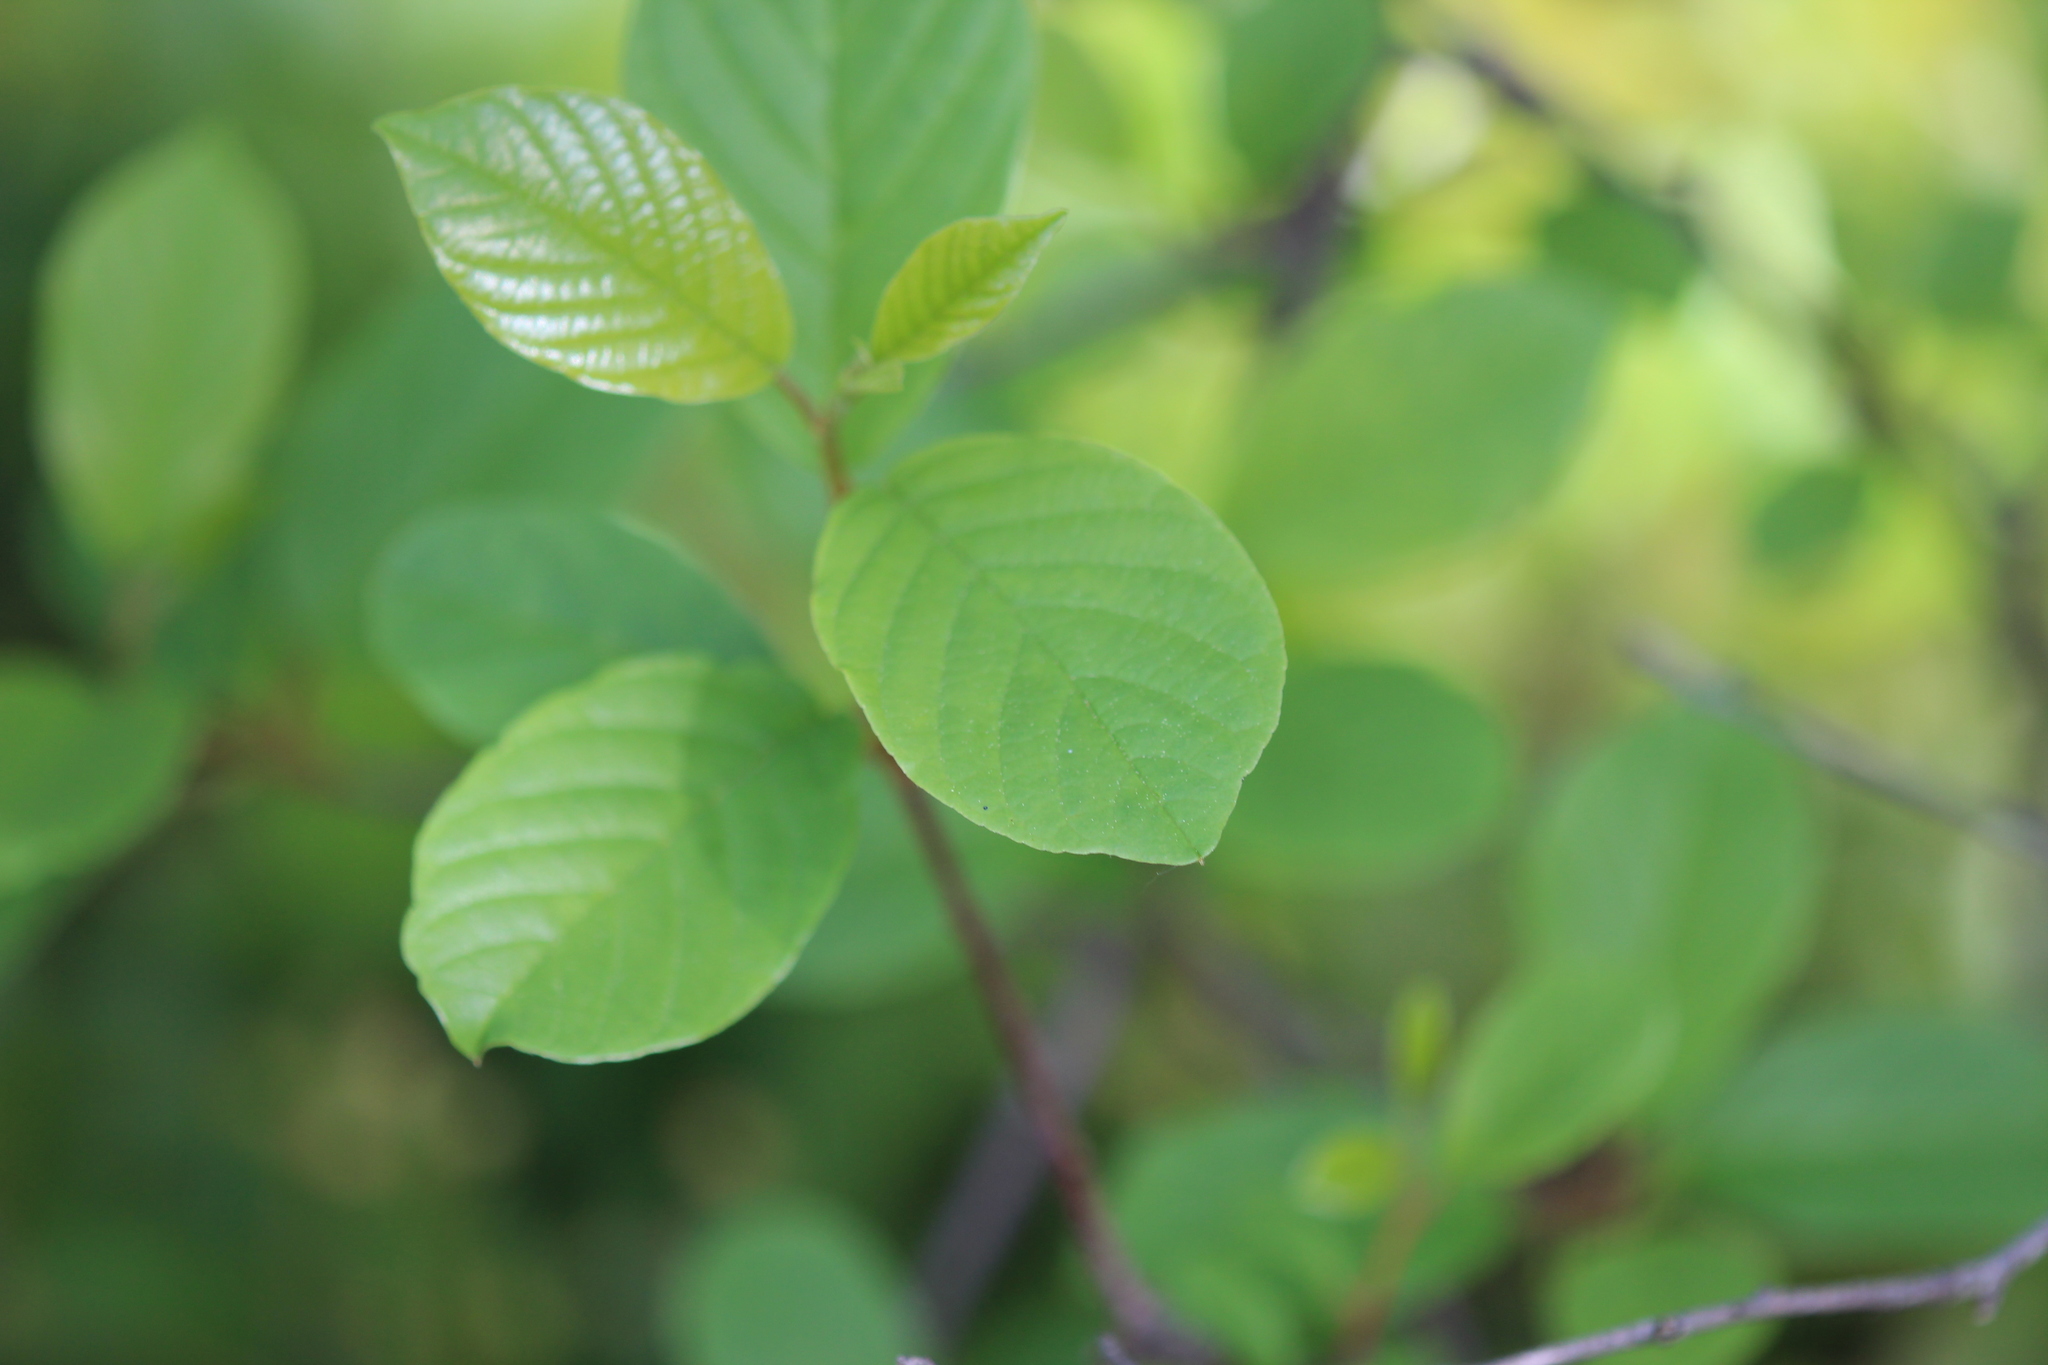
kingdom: Plantae
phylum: Tracheophyta
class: Magnoliopsida
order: Rosales
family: Rhamnaceae
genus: Frangula
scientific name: Frangula alnus
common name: Alder buckthorn
